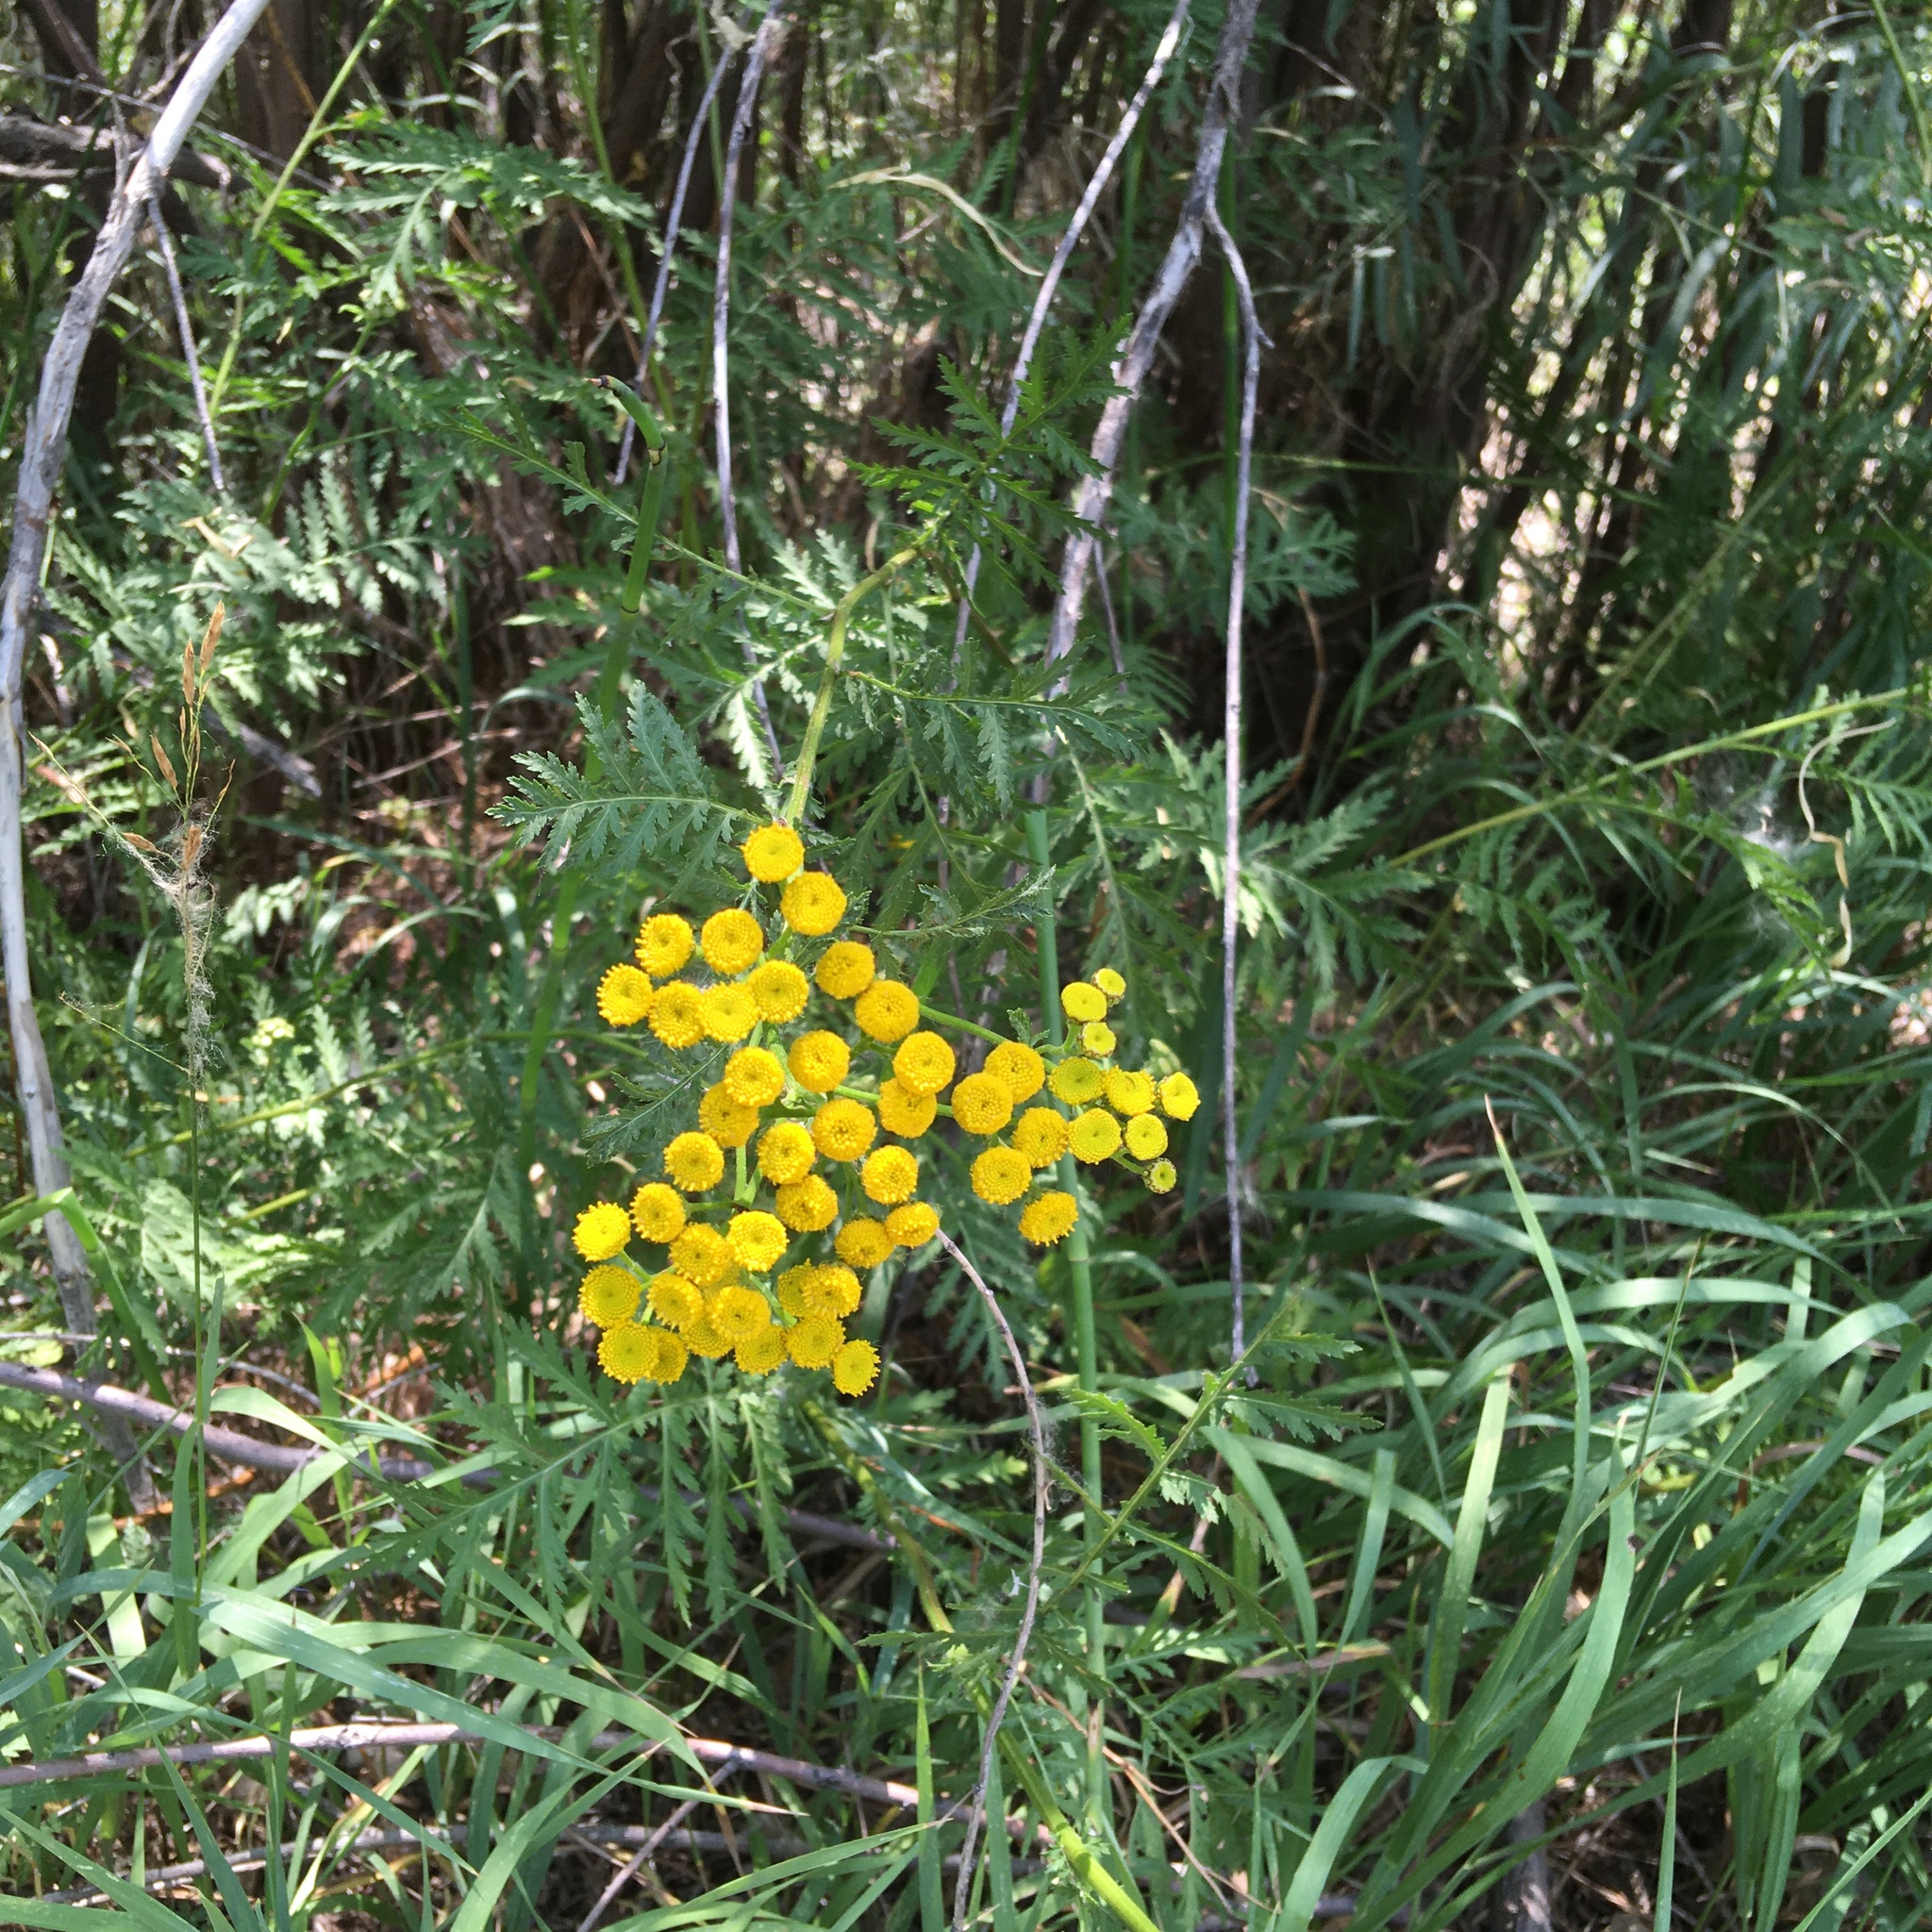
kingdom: Plantae
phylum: Tracheophyta
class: Magnoliopsida
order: Asterales
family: Asteraceae
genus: Tanacetum
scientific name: Tanacetum vulgare
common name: Common tansy
